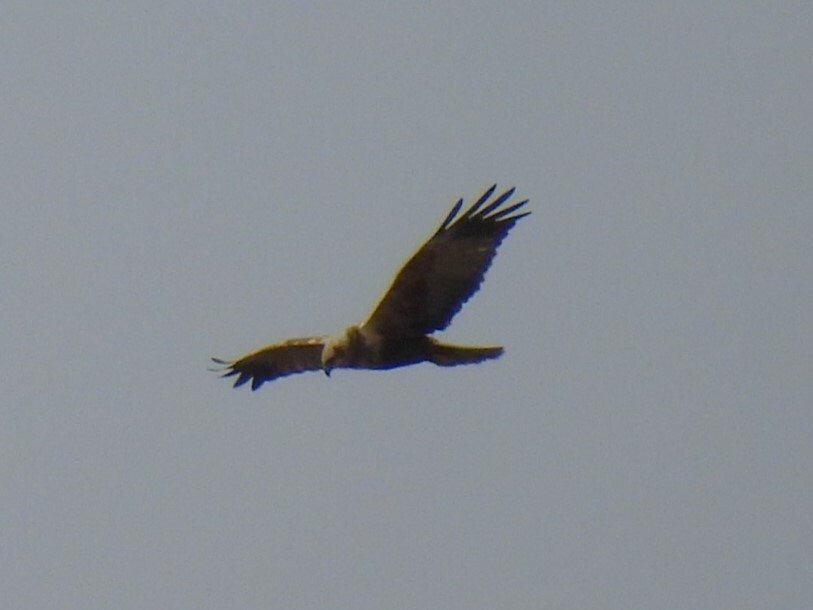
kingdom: Animalia
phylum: Chordata
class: Aves
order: Accipitriformes
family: Accipitridae
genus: Circus
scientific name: Circus aeruginosus
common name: Western marsh harrier
